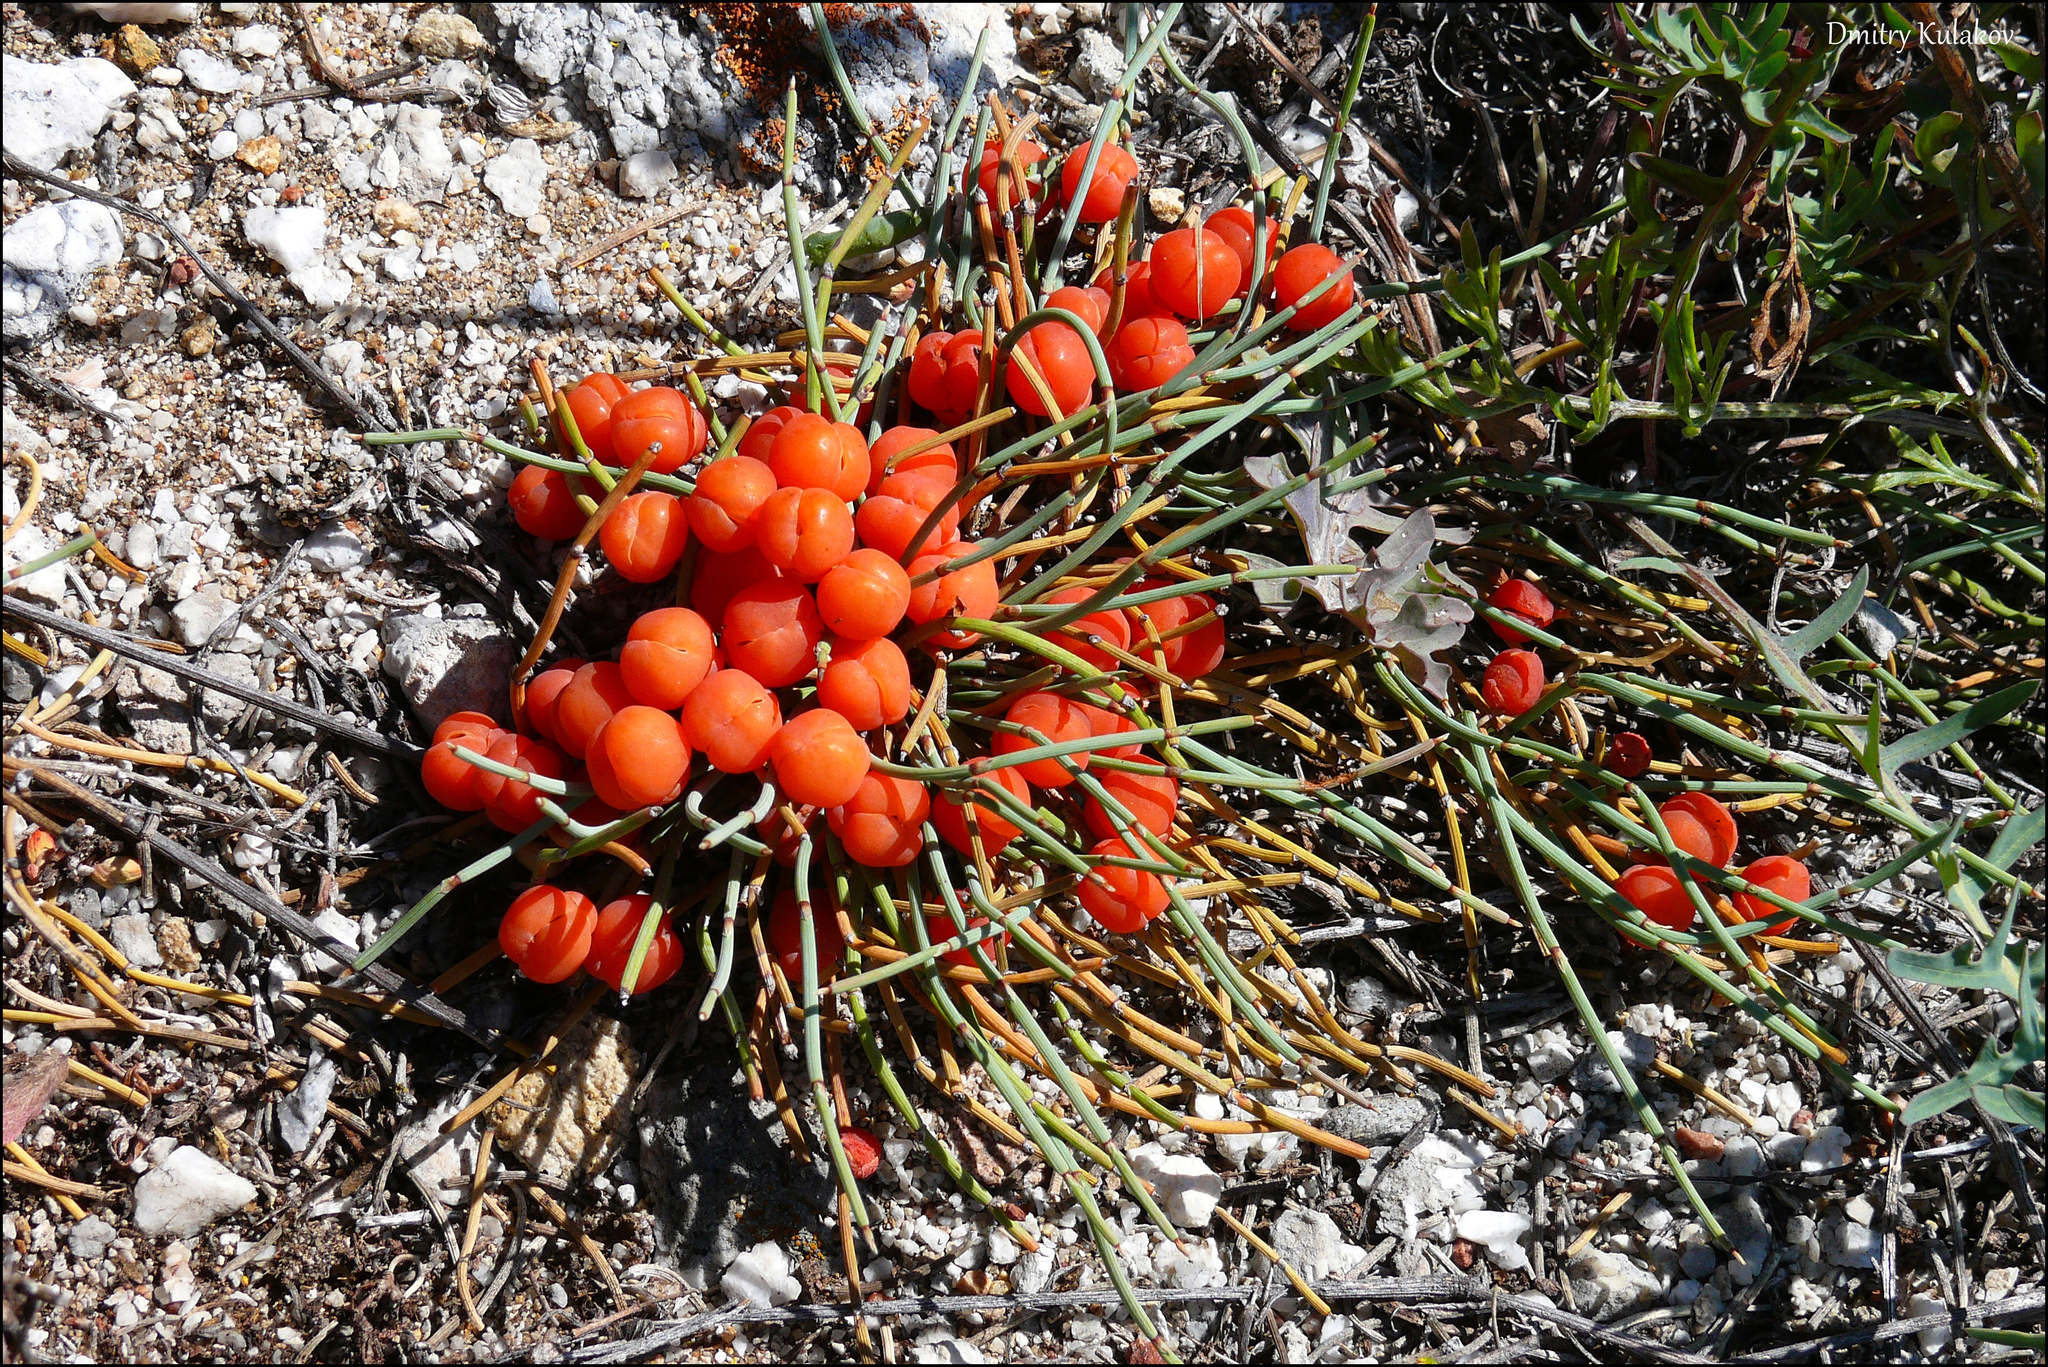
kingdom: Plantae
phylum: Tracheophyta
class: Gnetopsida
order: Ephedrales
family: Ephedraceae
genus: Ephedra
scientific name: Ephedra monosperma
